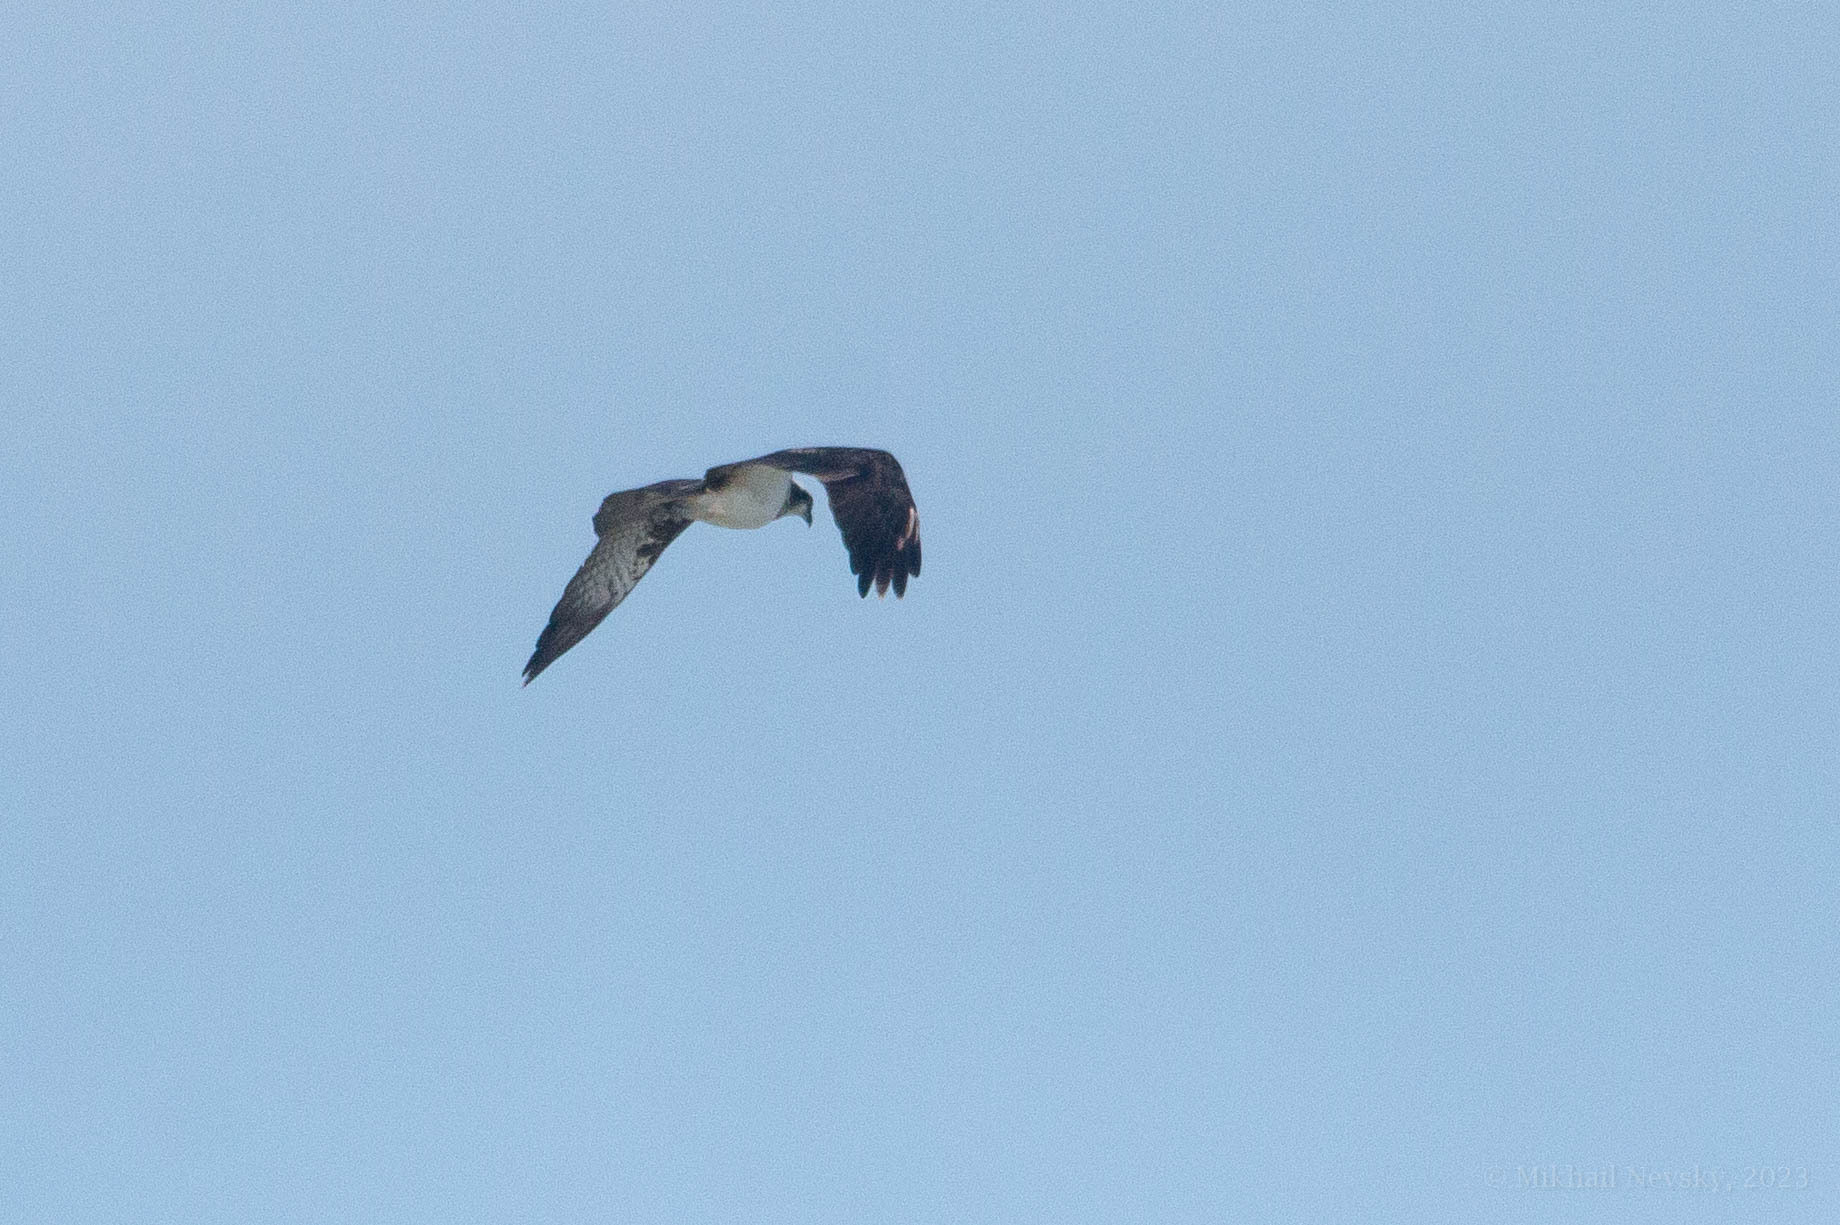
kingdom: Animalia
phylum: Chordata
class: Aves
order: Accipitriformes
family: Pandionidae
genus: Pandion
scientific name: Pandion haliaetus
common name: Osprey
